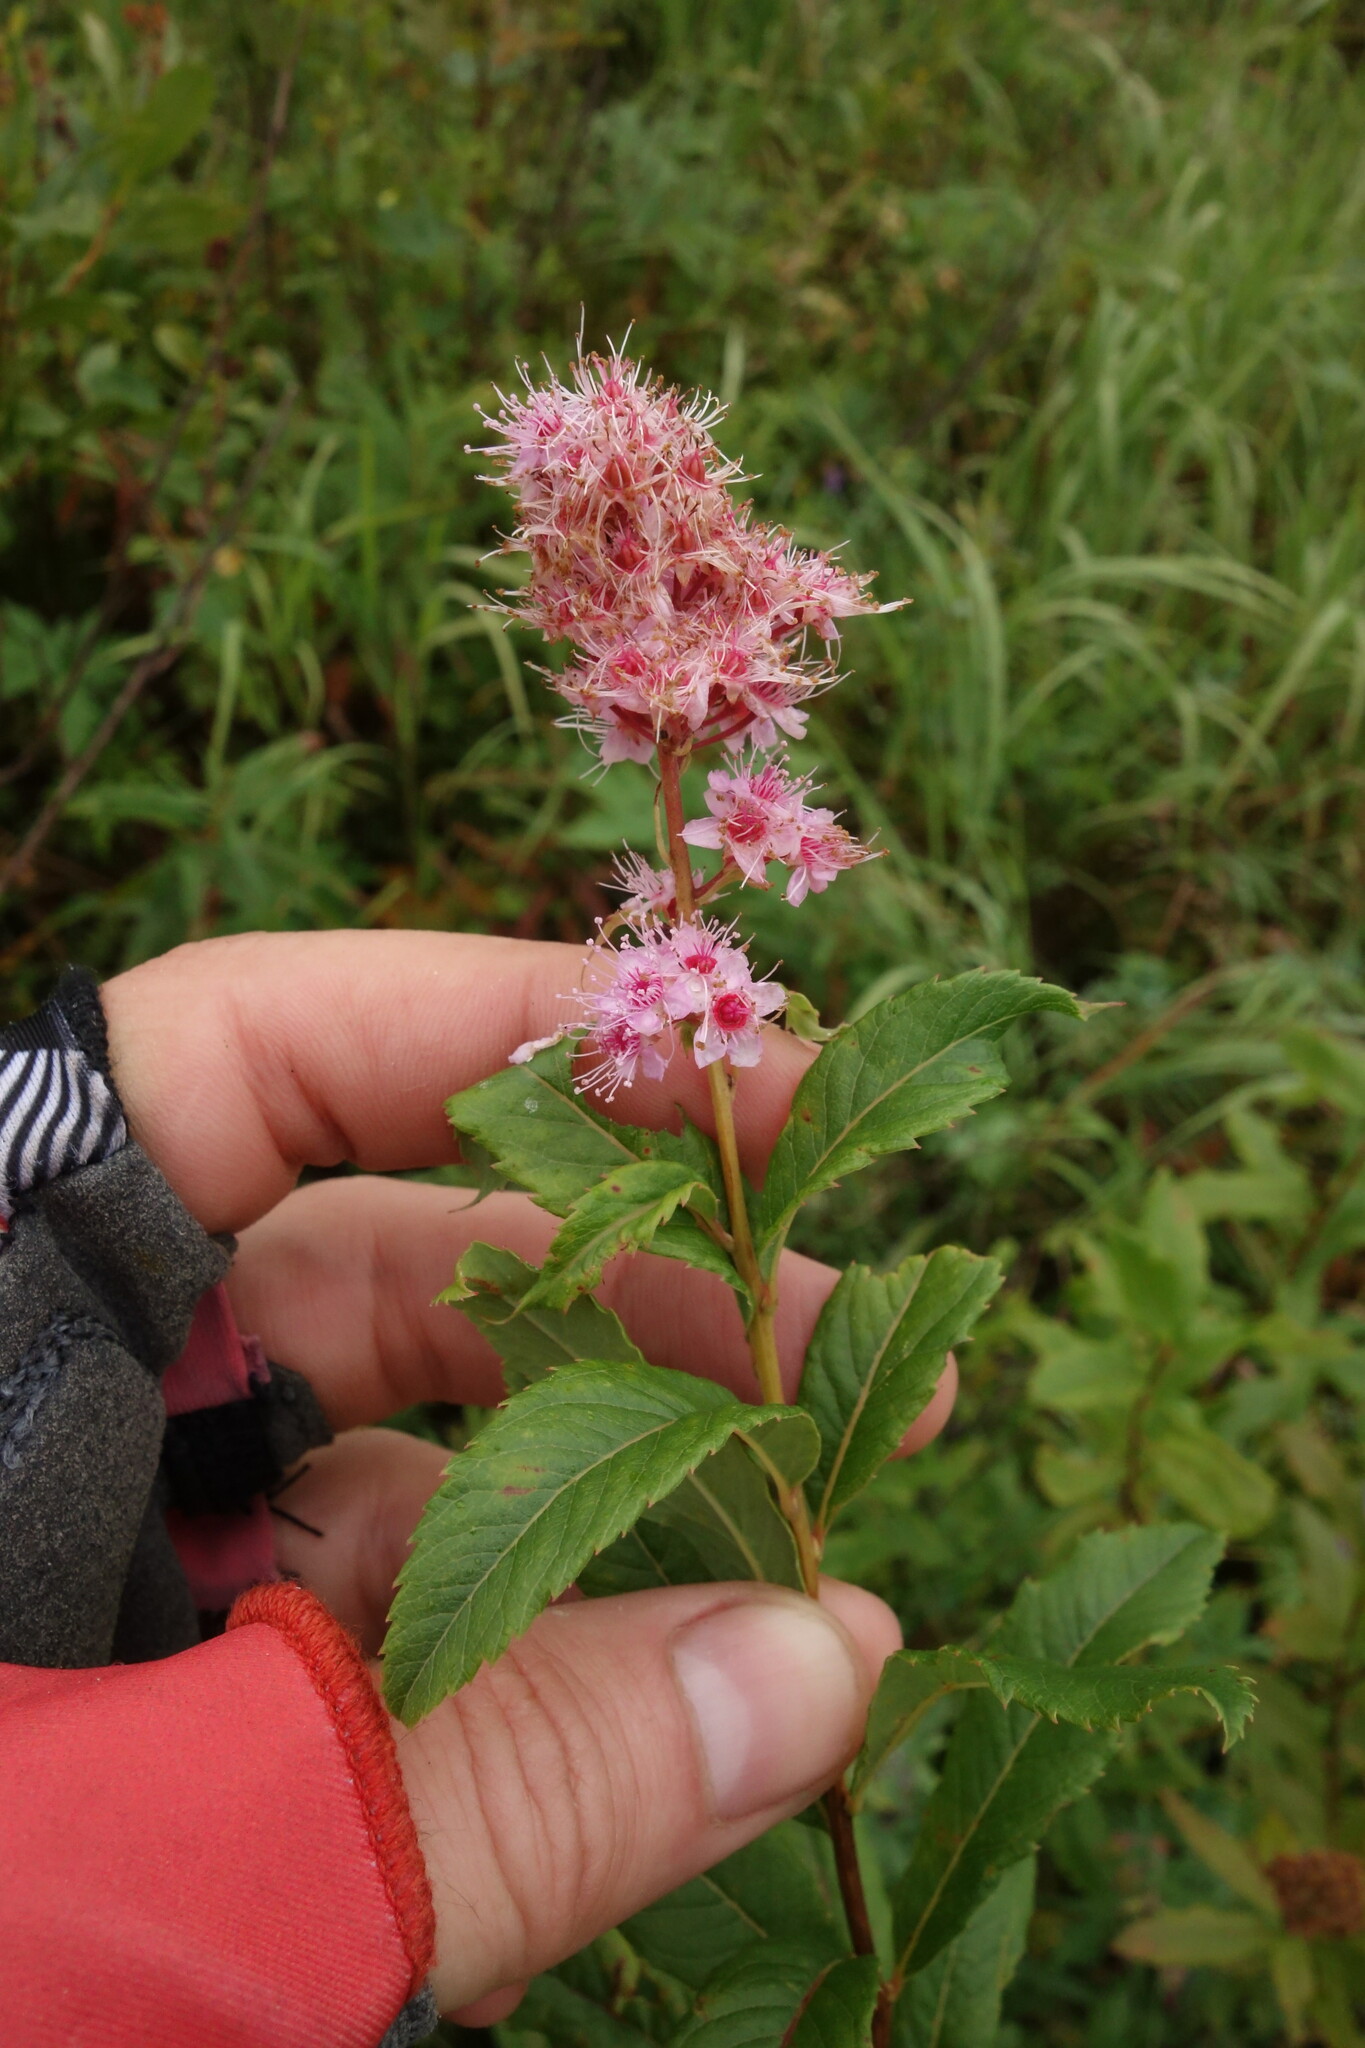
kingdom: Plantae
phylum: Tracheophyta
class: Magnoliopsida
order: Rosales
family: Rosaceae
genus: Spiraea
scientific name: Spiraea salicifolia
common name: Bridewort
